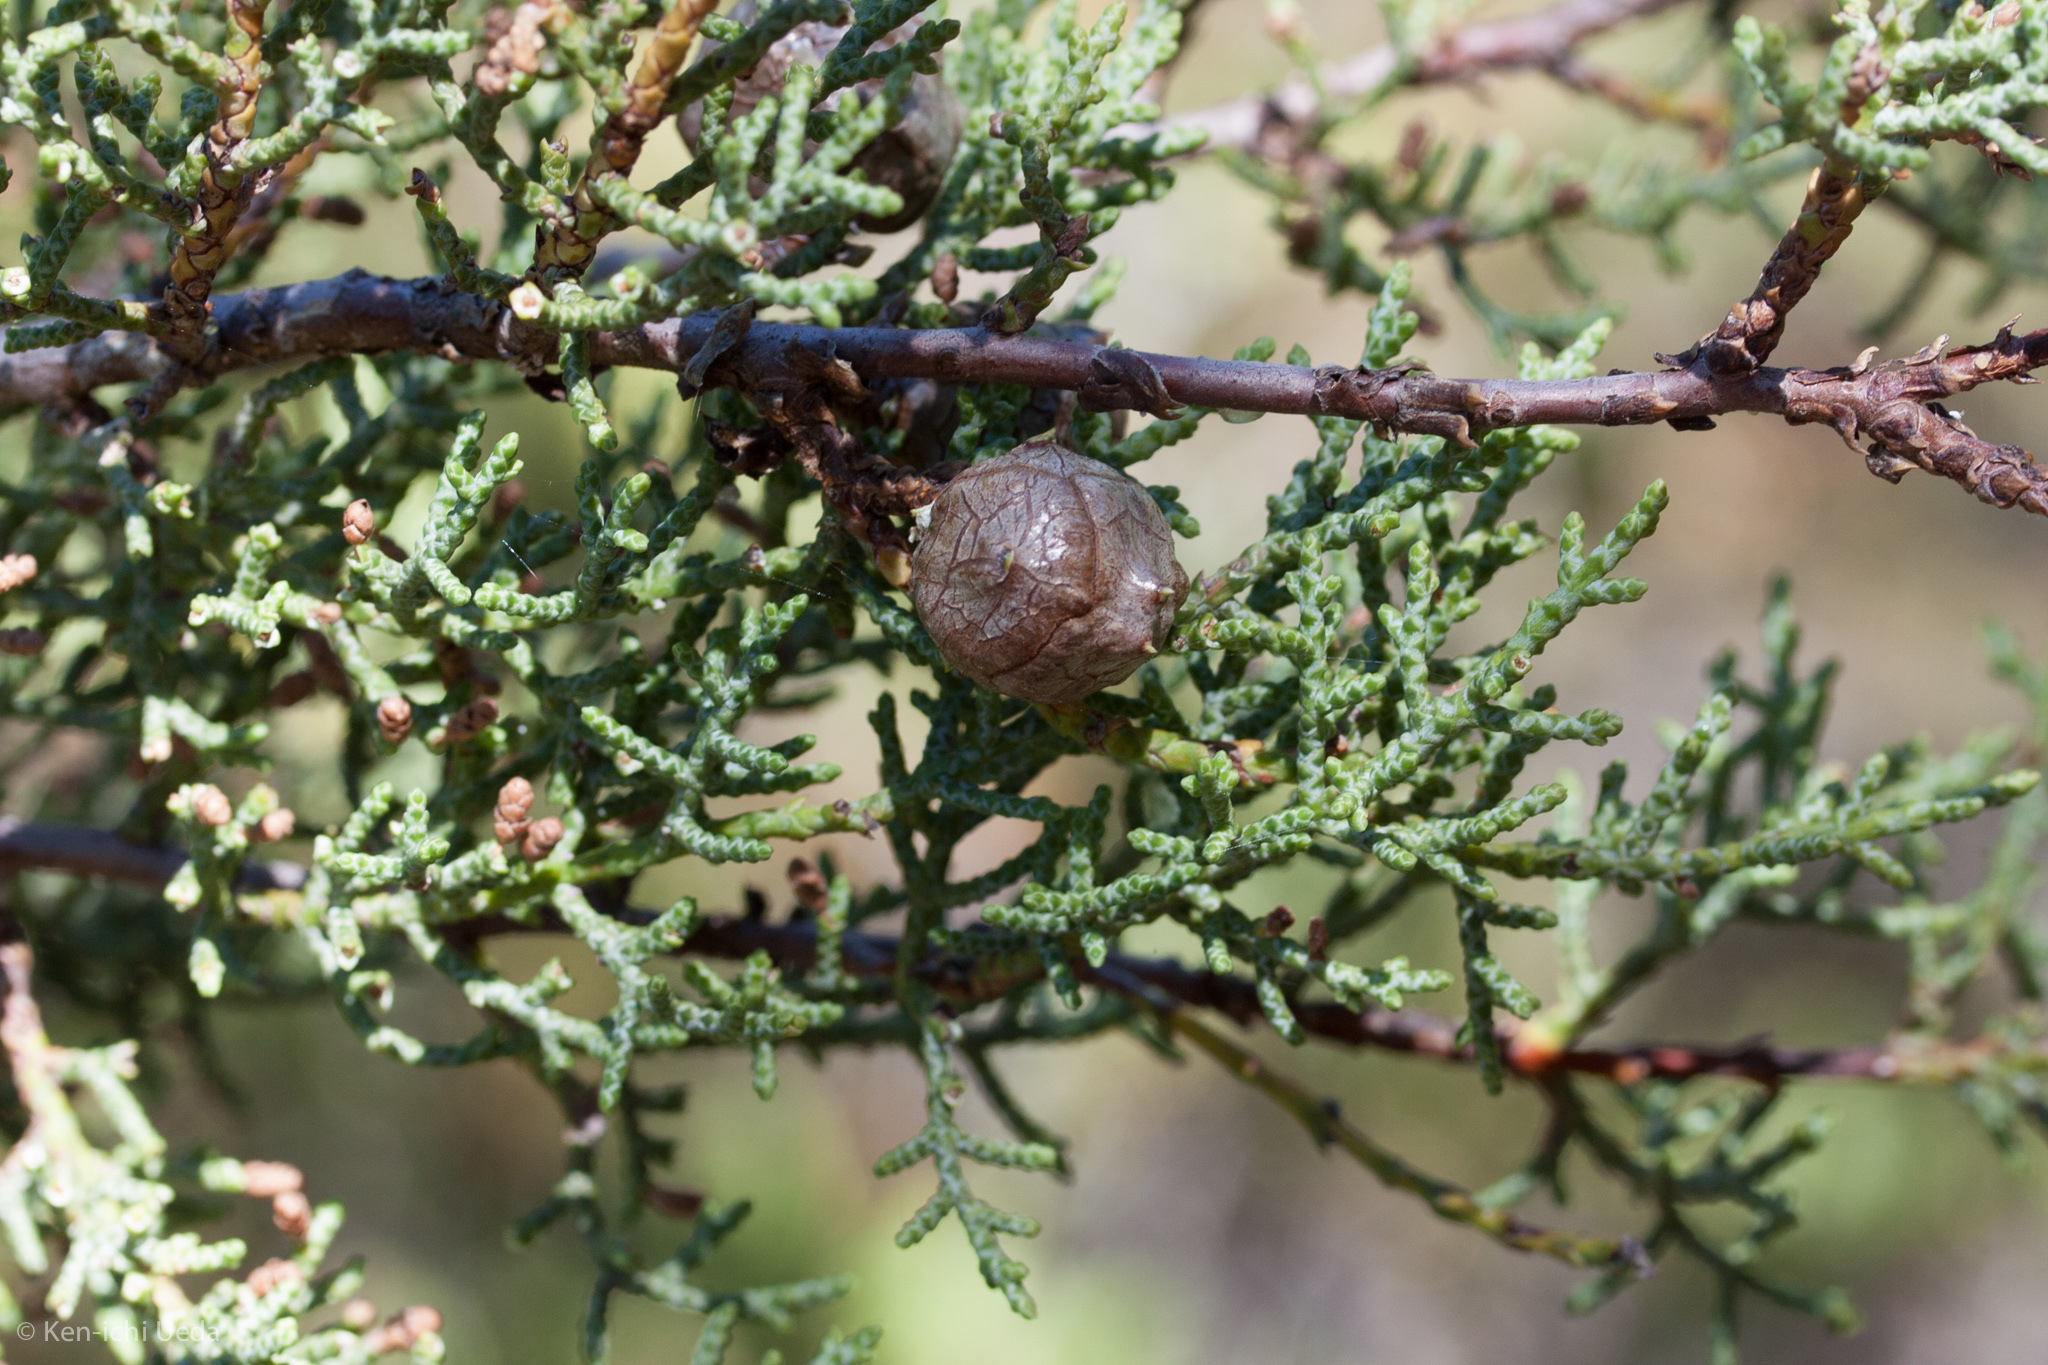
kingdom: Plantae
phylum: Tracheophyta
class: Pinopsida
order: Pinales
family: Cupressaceae
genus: Cupressus
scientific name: Cupressus sargentii
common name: Sargent cypress
